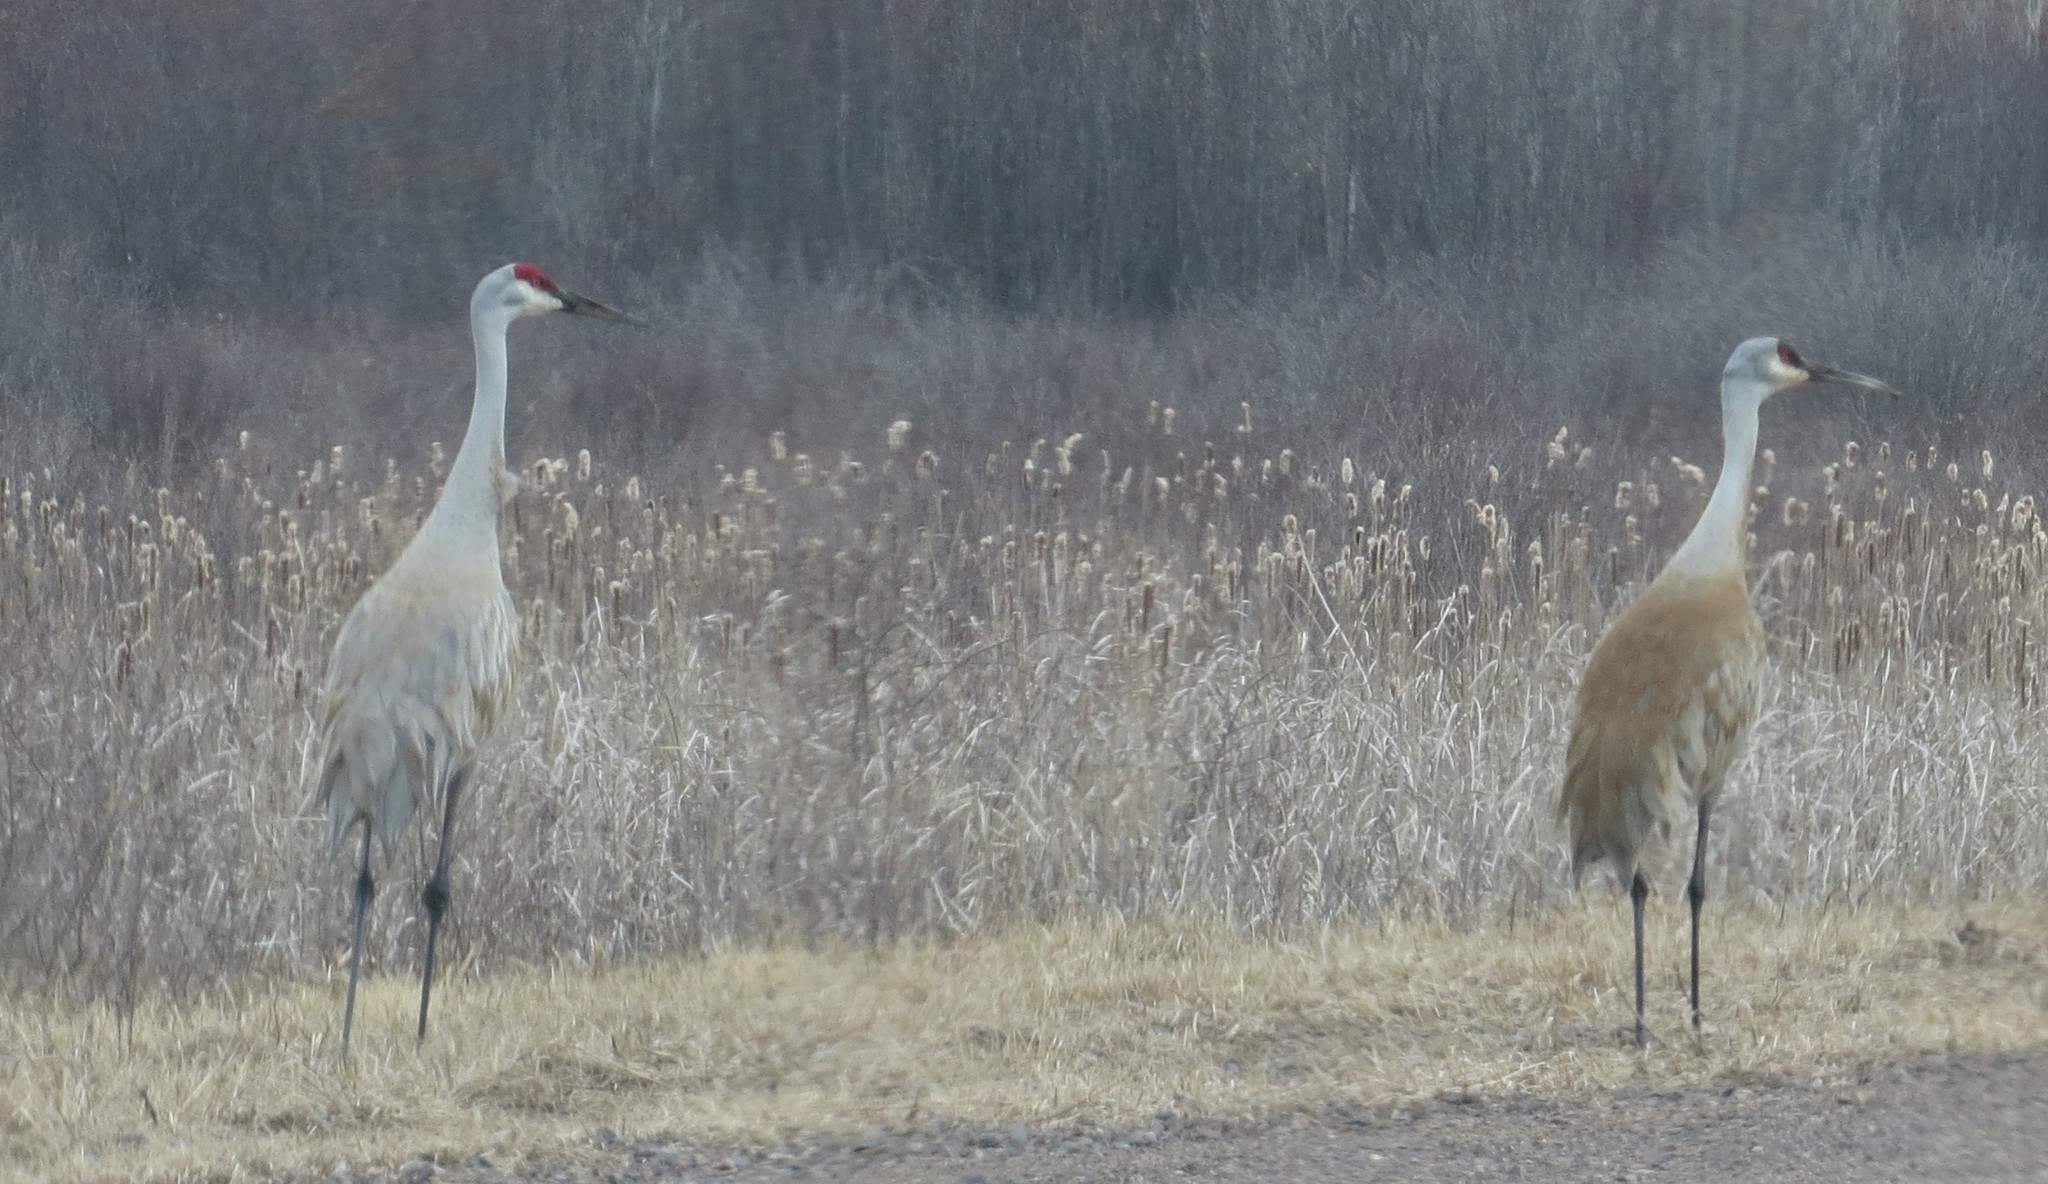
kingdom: Animalia
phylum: Chordata
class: Aves
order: Gruiformes
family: Gruidae
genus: Grus
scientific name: Grus canadensis
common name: Sandhill crane
